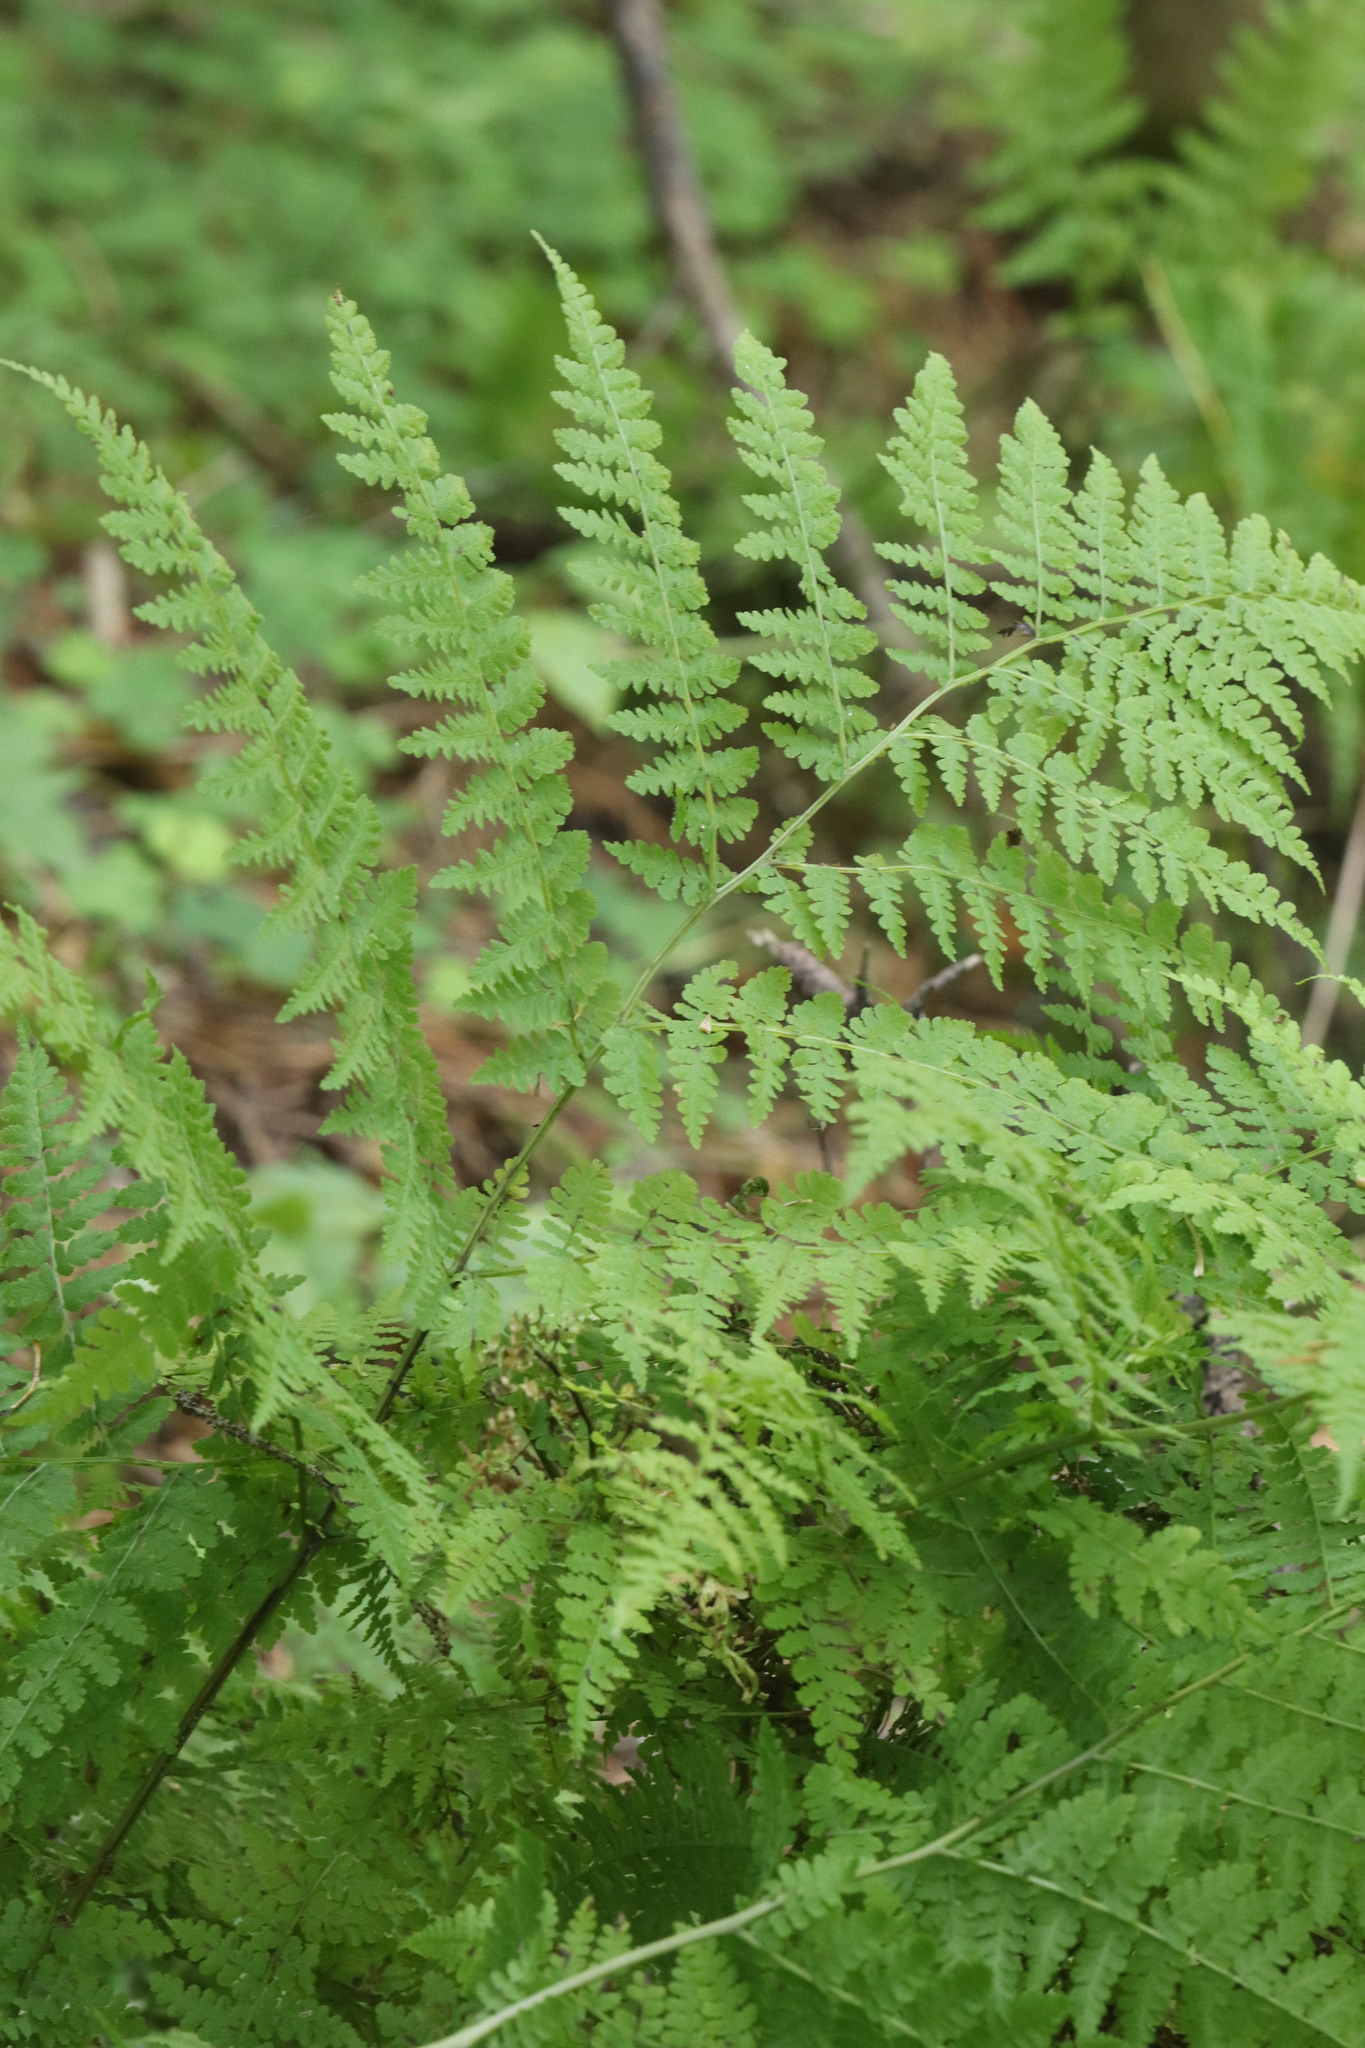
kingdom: Plantae
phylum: Tracheophyta
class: Polypodiopsida
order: Polypodiales
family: Athyriaceae
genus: Diplazium
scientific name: Diplazium sibiricum
